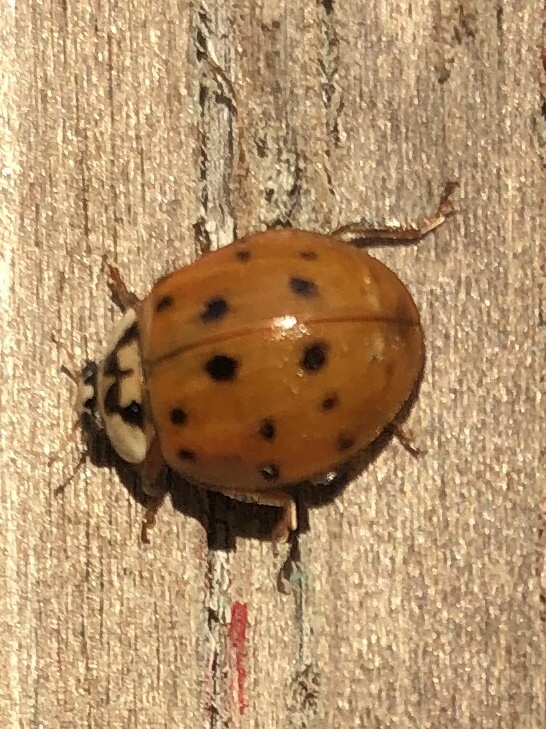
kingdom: Animalia
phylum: Arthropoda
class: Insecta
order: Coleoptera
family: Coccinellidae
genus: Harmonia
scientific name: Harmonia axyridis
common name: Harlequin ladybird
